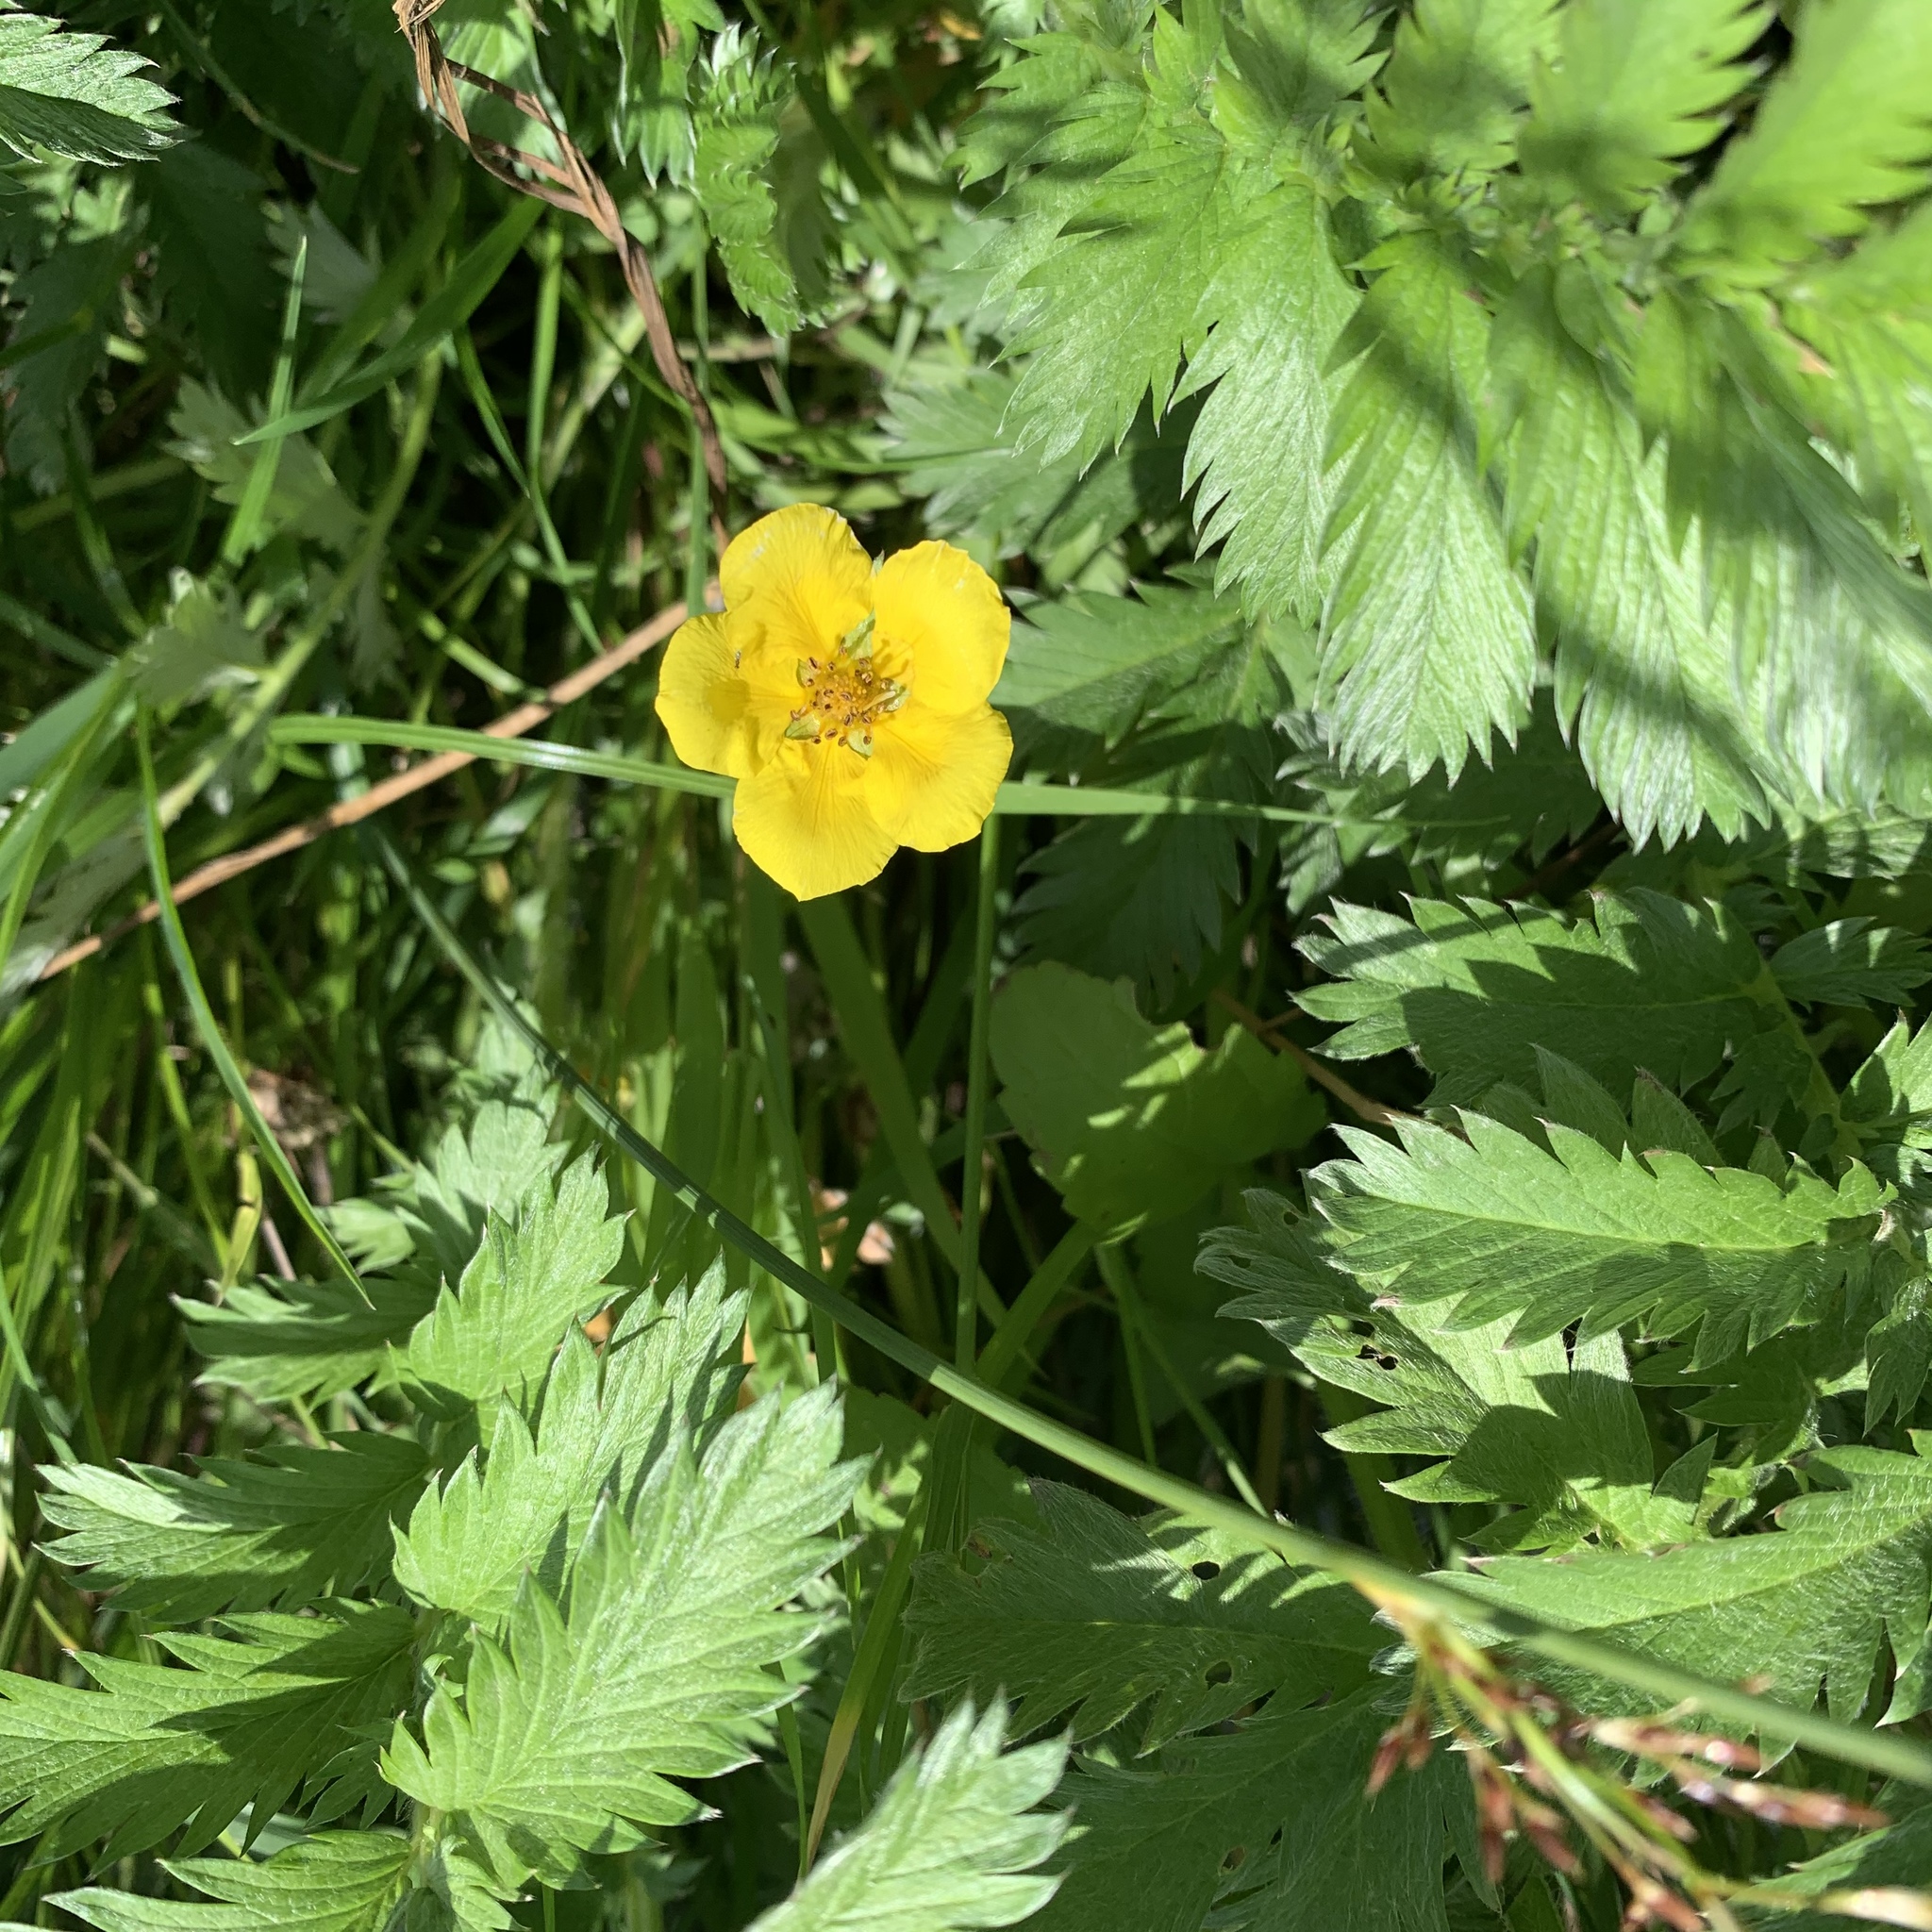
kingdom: Plantae
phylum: Tracheophyta
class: Magnoliopsida
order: Rosales
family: Rosaceae
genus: Argentina
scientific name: Argentina anserina
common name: Common silverweed
